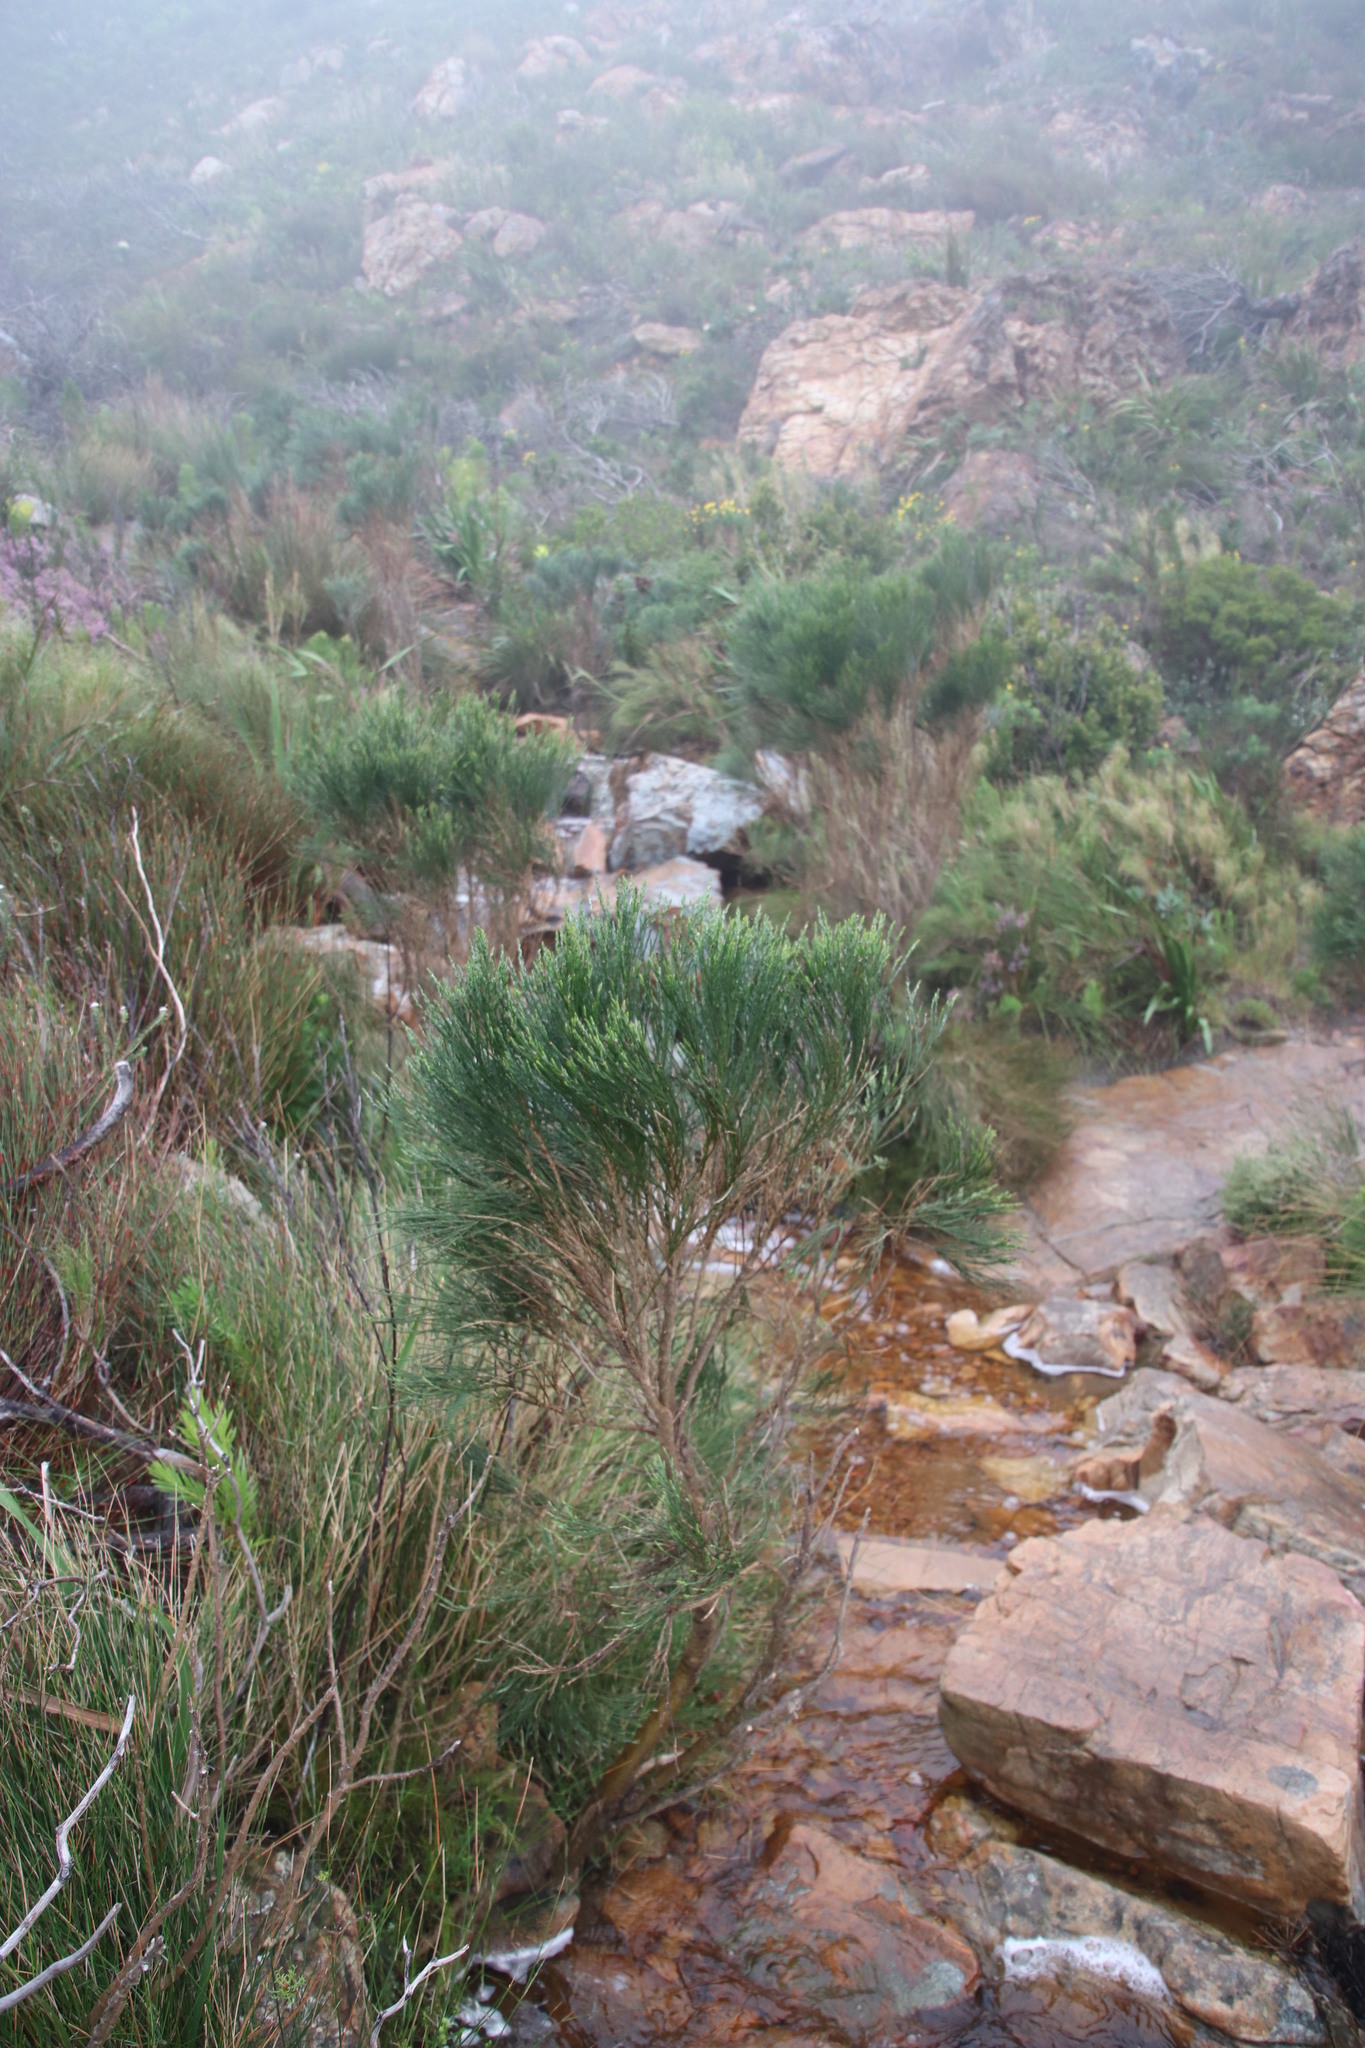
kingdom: Plantae
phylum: Tracheophyta
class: Magnoliopsida
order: Fabales
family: Fabaceae
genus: Psoralea
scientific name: Psoralea aphylla
